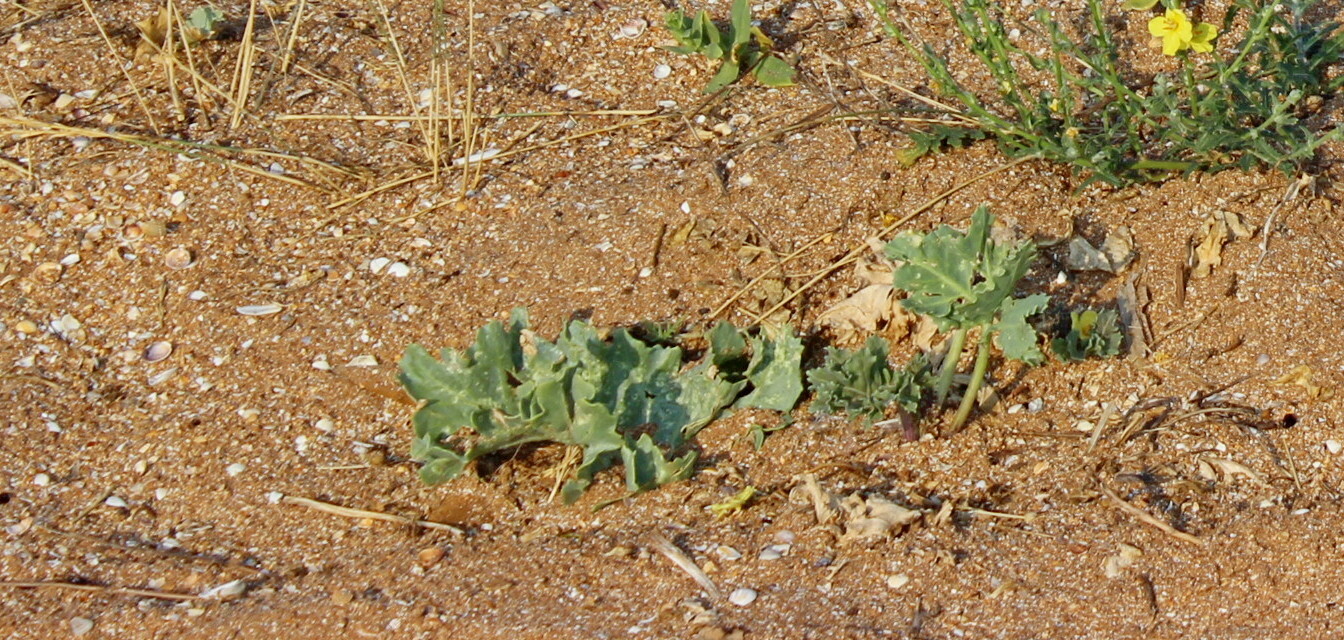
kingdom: Plantae
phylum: Tracheophyta
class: Magnoliopsida
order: Brassicales
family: Brassicaceae
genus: Crambe
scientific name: Crambe maritima
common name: Sea-kale
